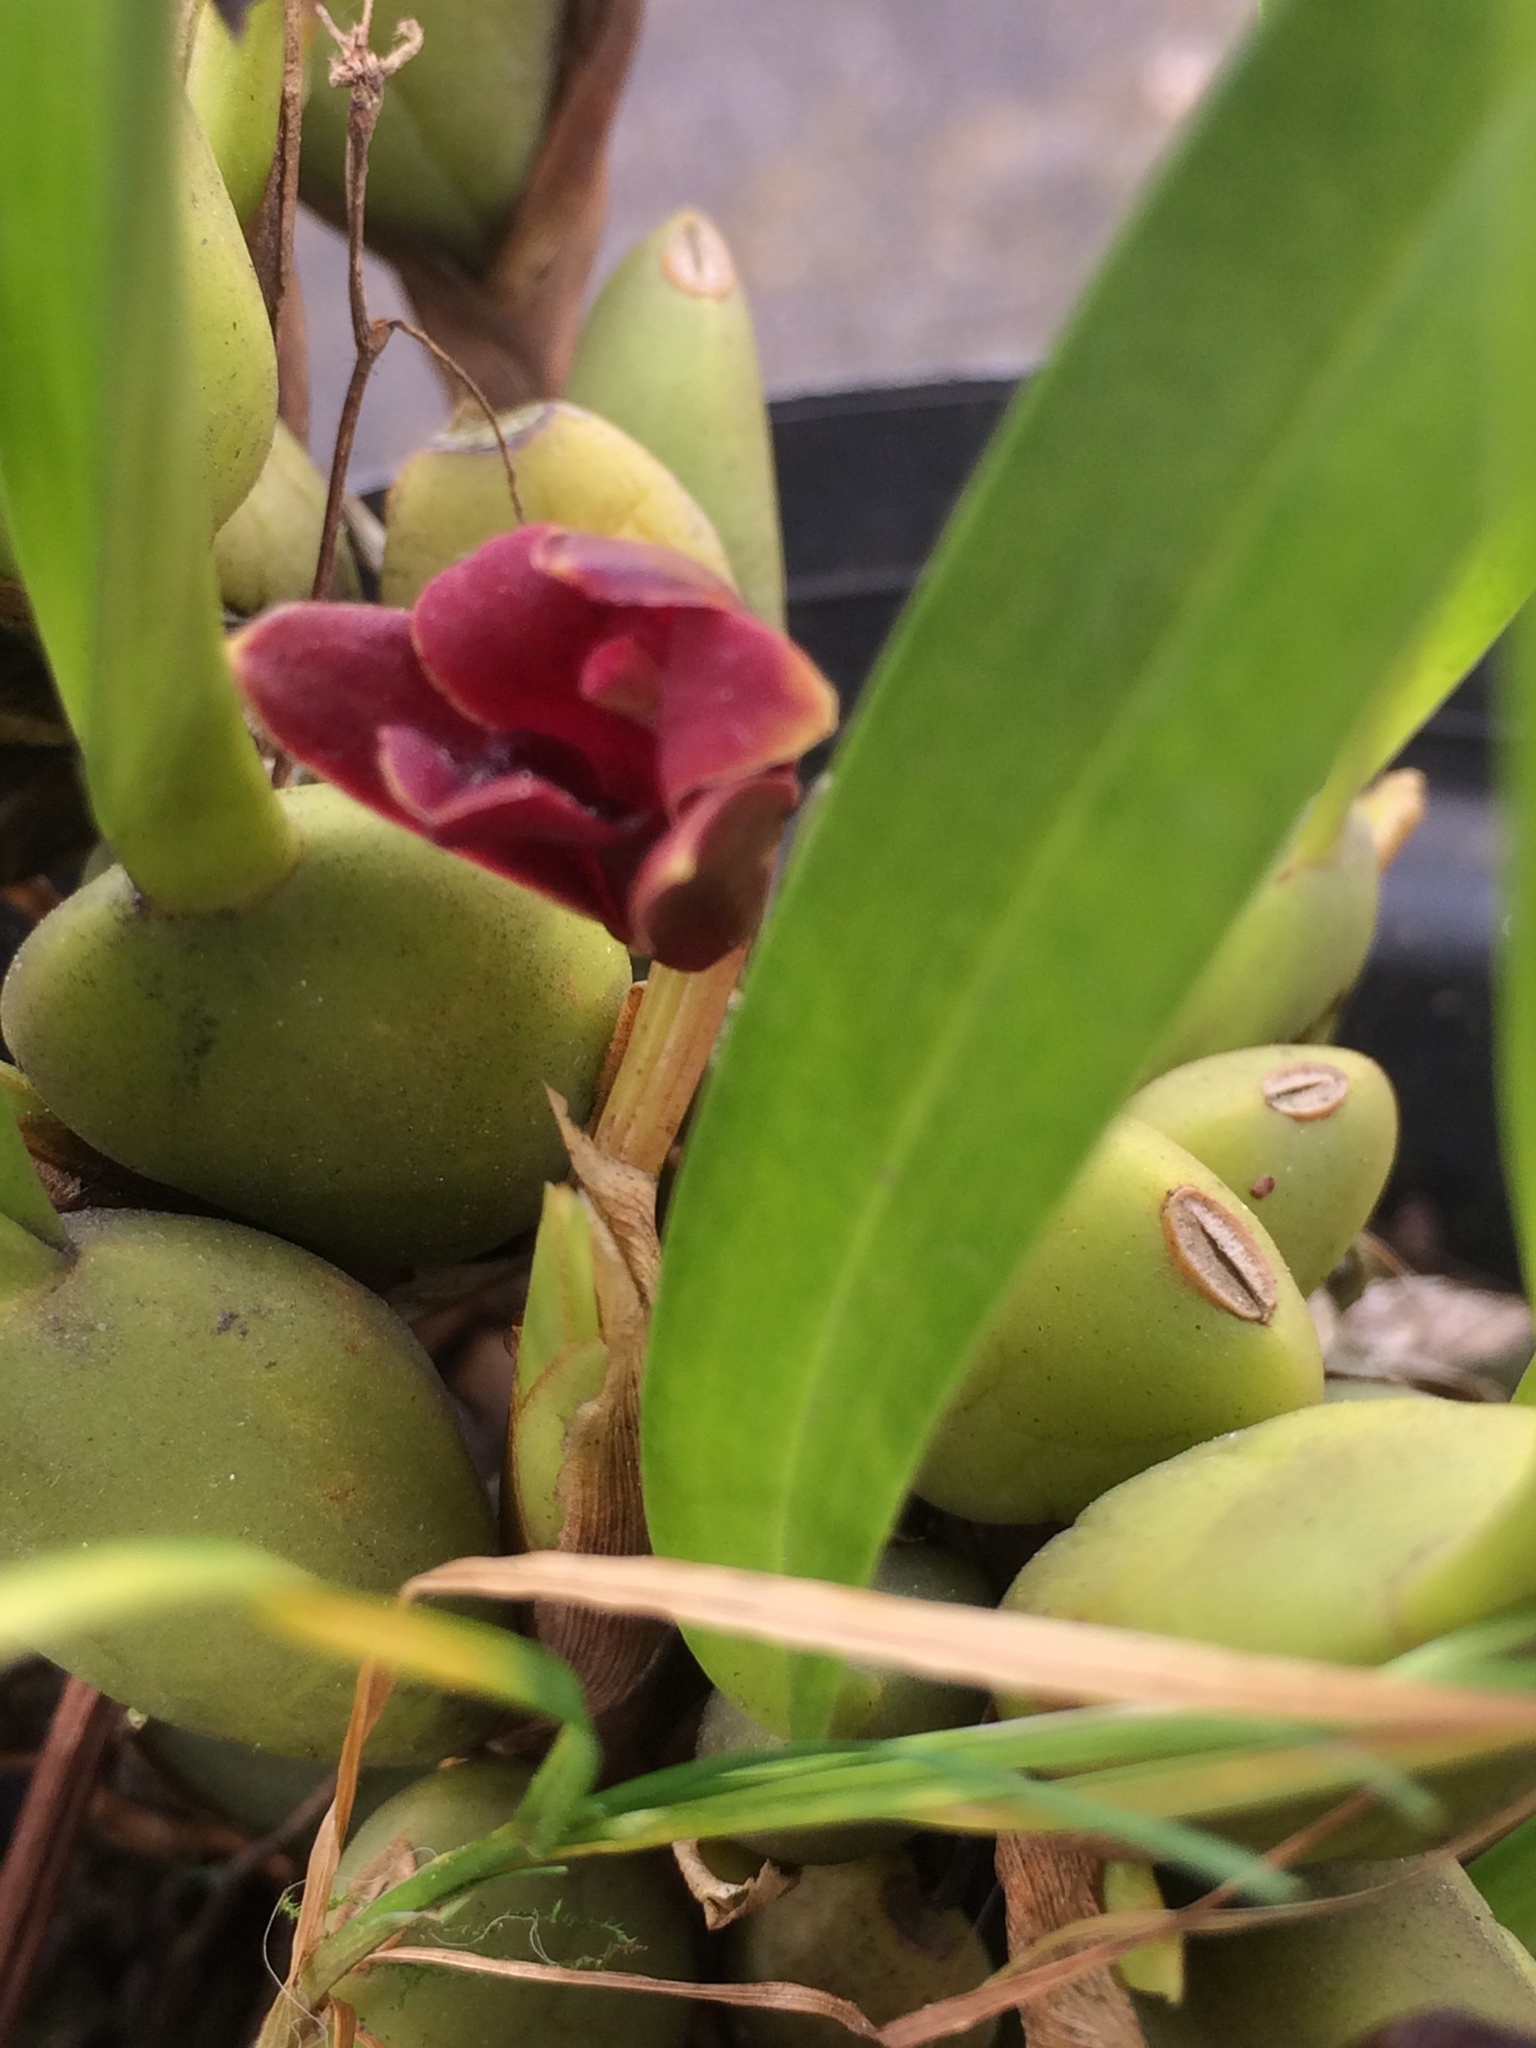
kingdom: Plantae
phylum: Tracheophyta
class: Liliopsida
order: Asparagales
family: Orchidaceae
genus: Maxillaria
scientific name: Maxillaria variabilis
